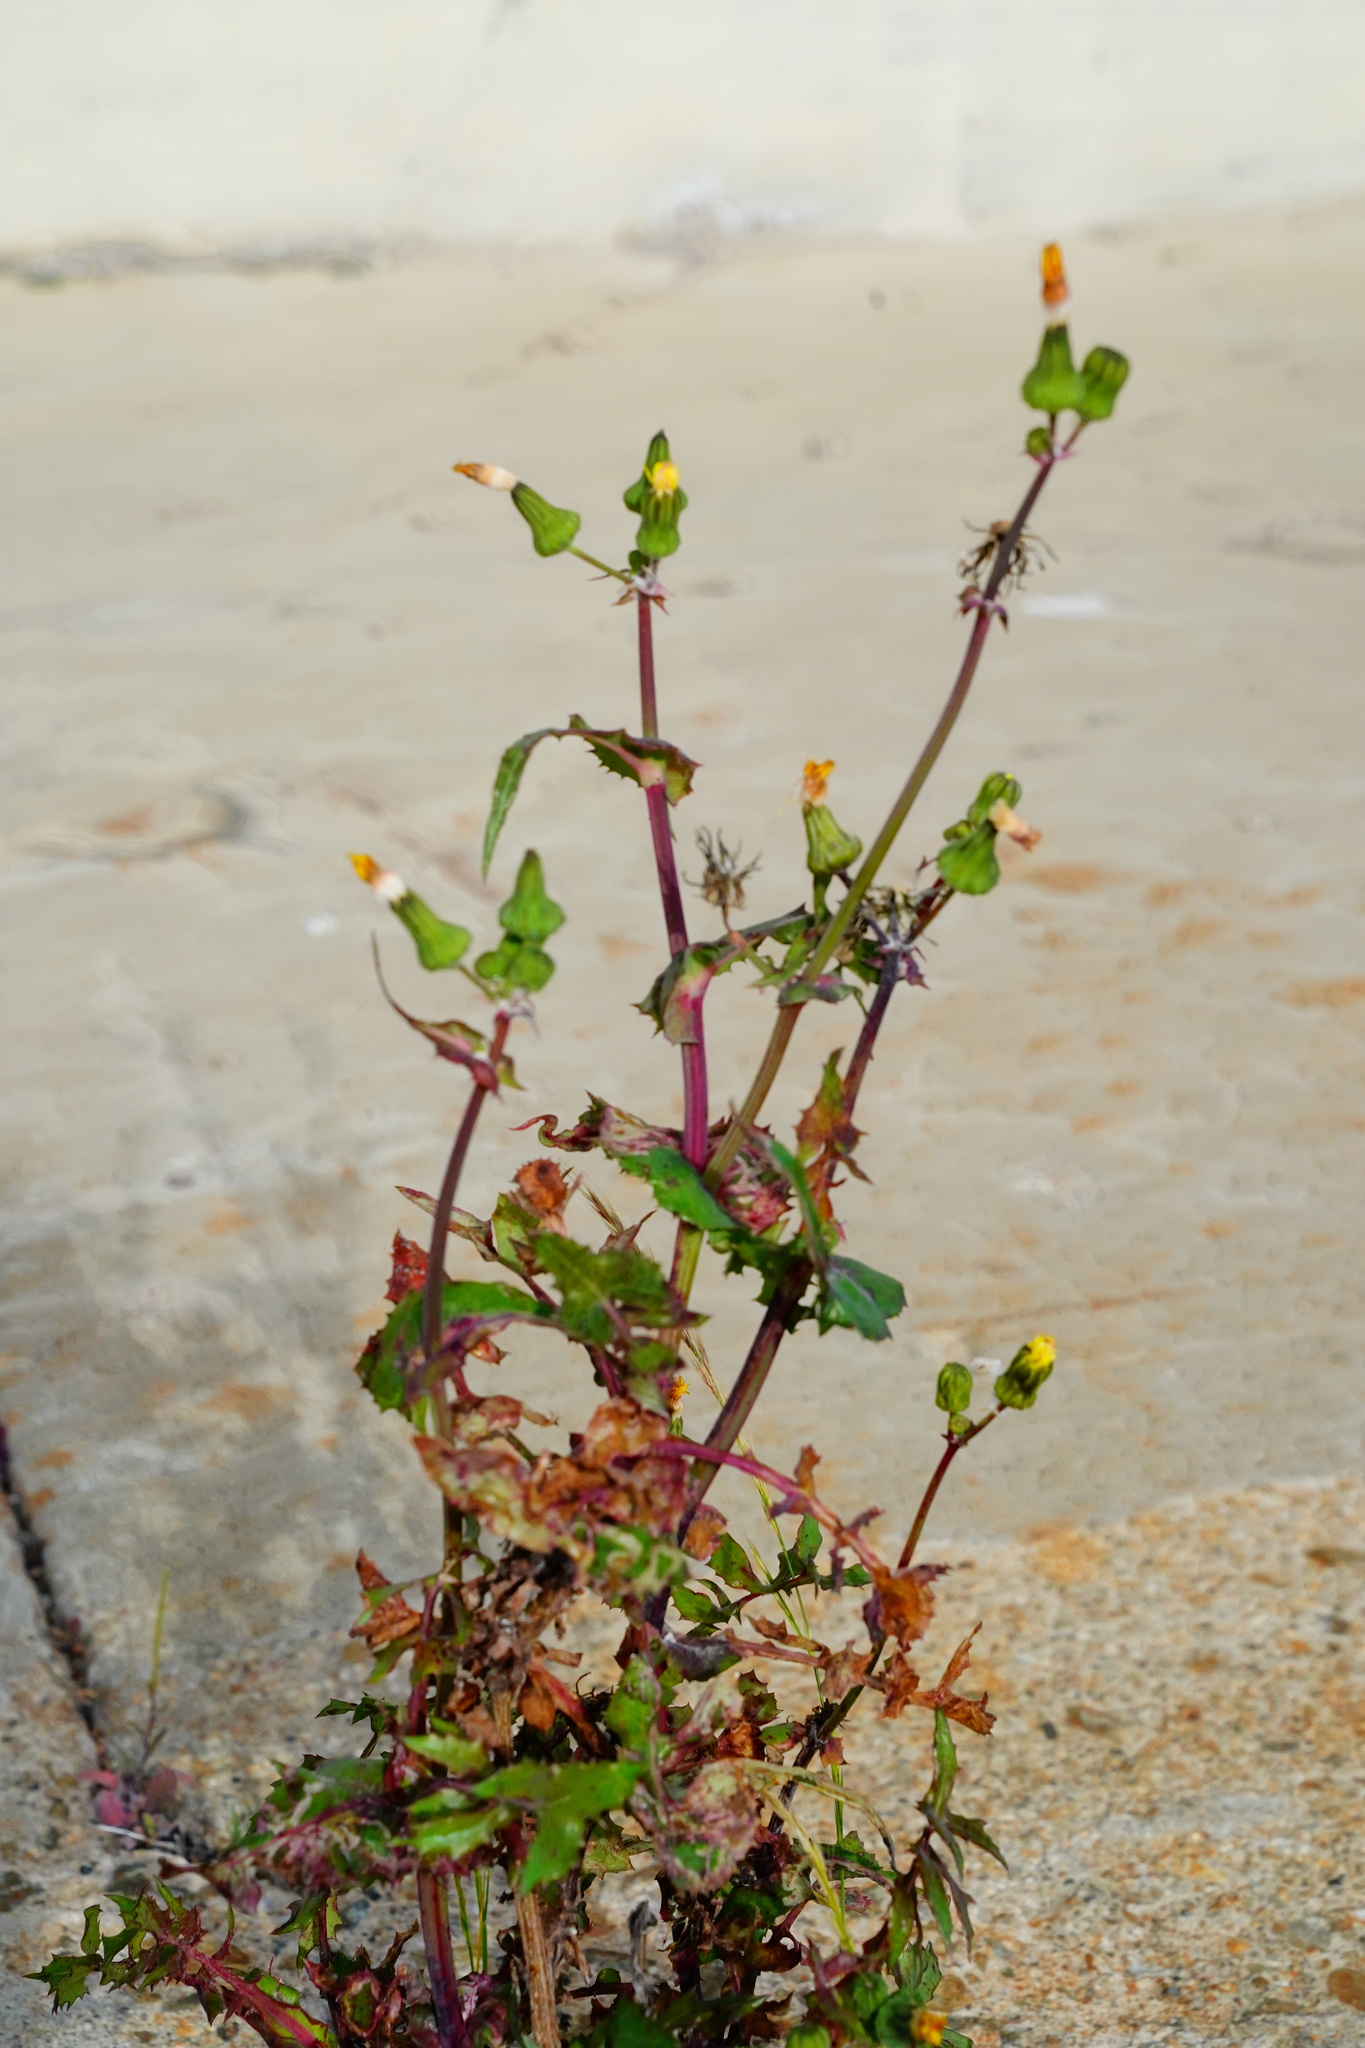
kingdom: Plantae
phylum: Tracheophyta
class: Magnoliopsida
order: Asterales
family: Asteraceae
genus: Sonchus
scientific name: Sonchus oleraceus
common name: Common sowthistle
